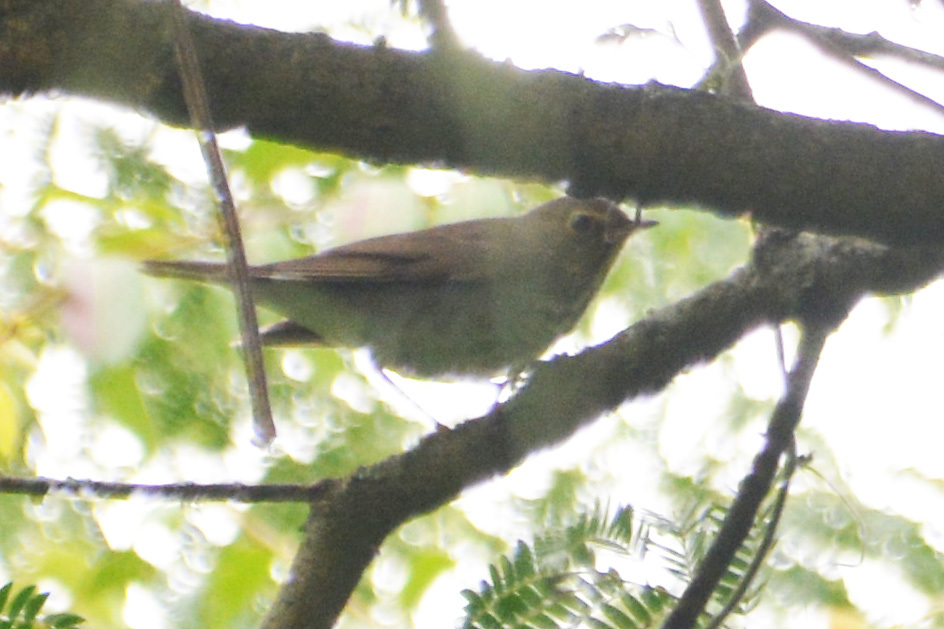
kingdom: Animalia
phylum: Chordata
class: Aves
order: Passeriformes
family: Turdidae
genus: Catharus
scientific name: Catharus ustulatus
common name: Swainson's thrush
